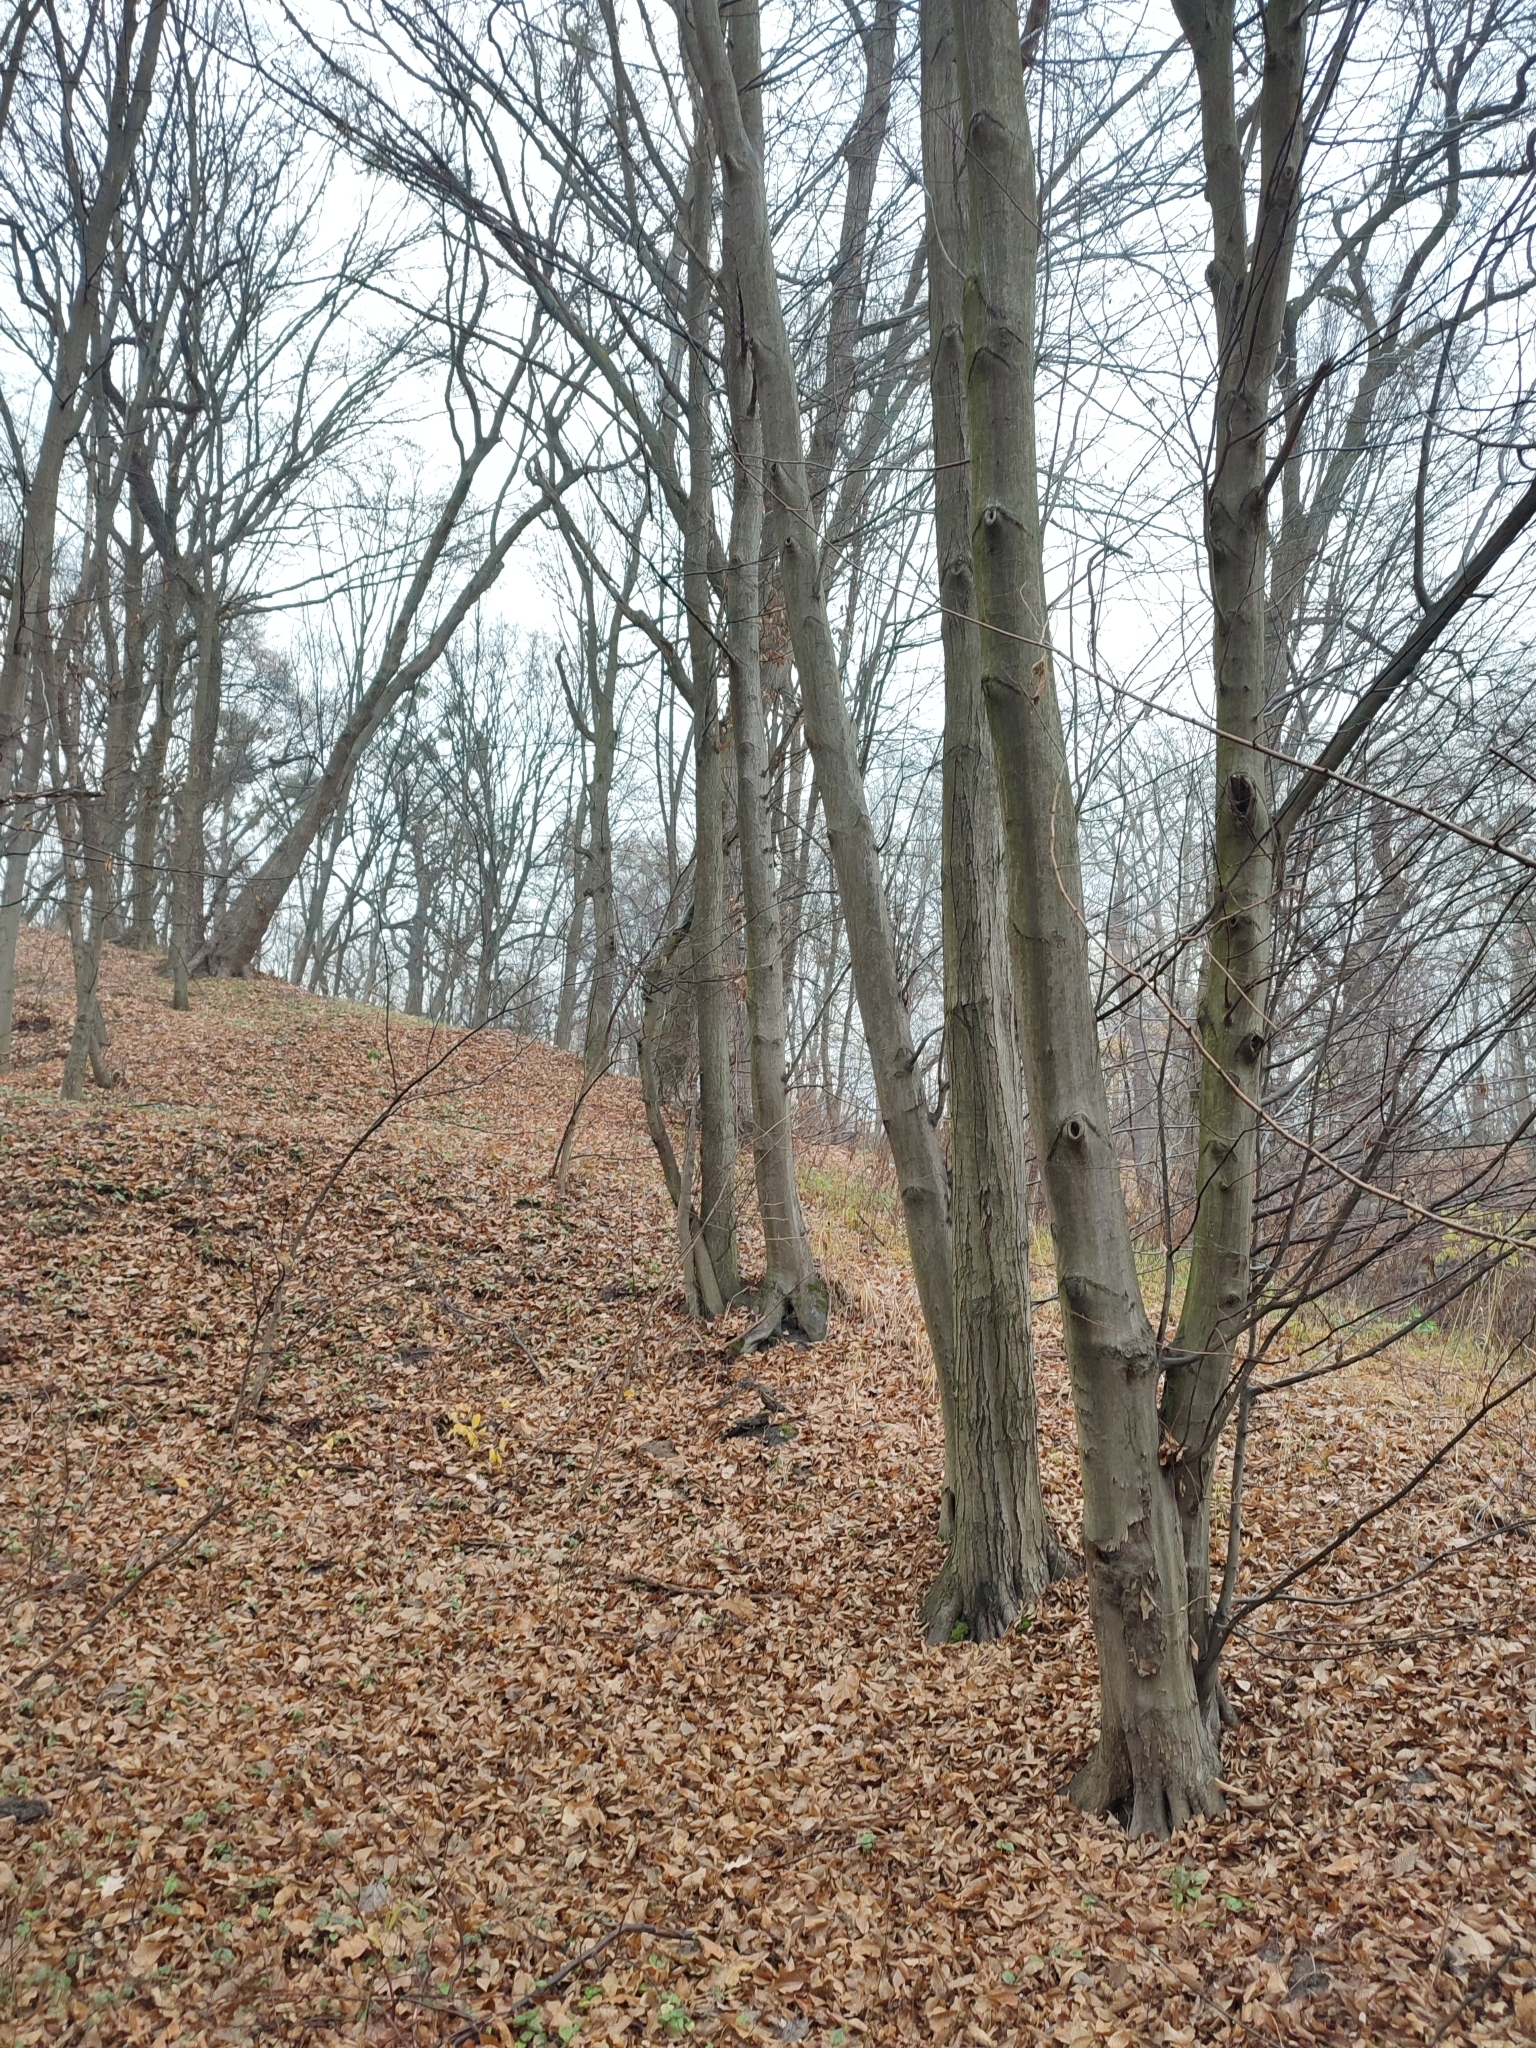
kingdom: Plantae
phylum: Tracheophyta
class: Magnoliopsida
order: Fagales
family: Betulaceae
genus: Carpinus
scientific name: Carpinus betulus
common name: Hornbeam
